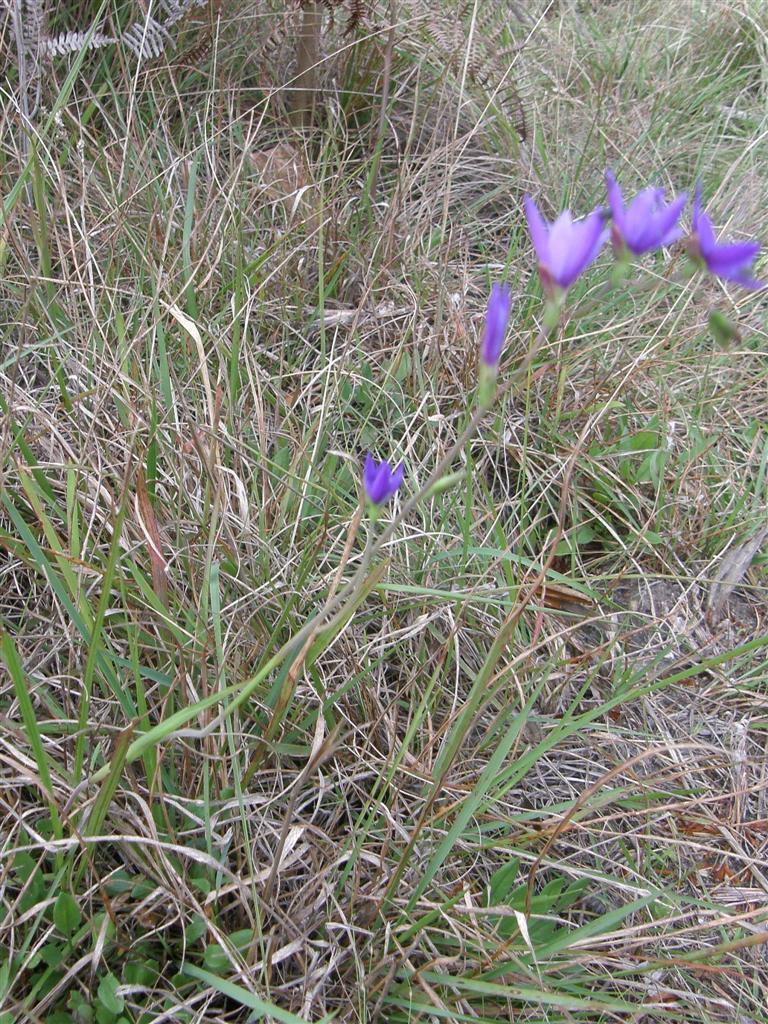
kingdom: Plantae
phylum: Tracheophyta
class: Liliopsida
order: Asparagales
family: Iridaceae
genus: Geissorhiza
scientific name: Geissorhiza aspera
